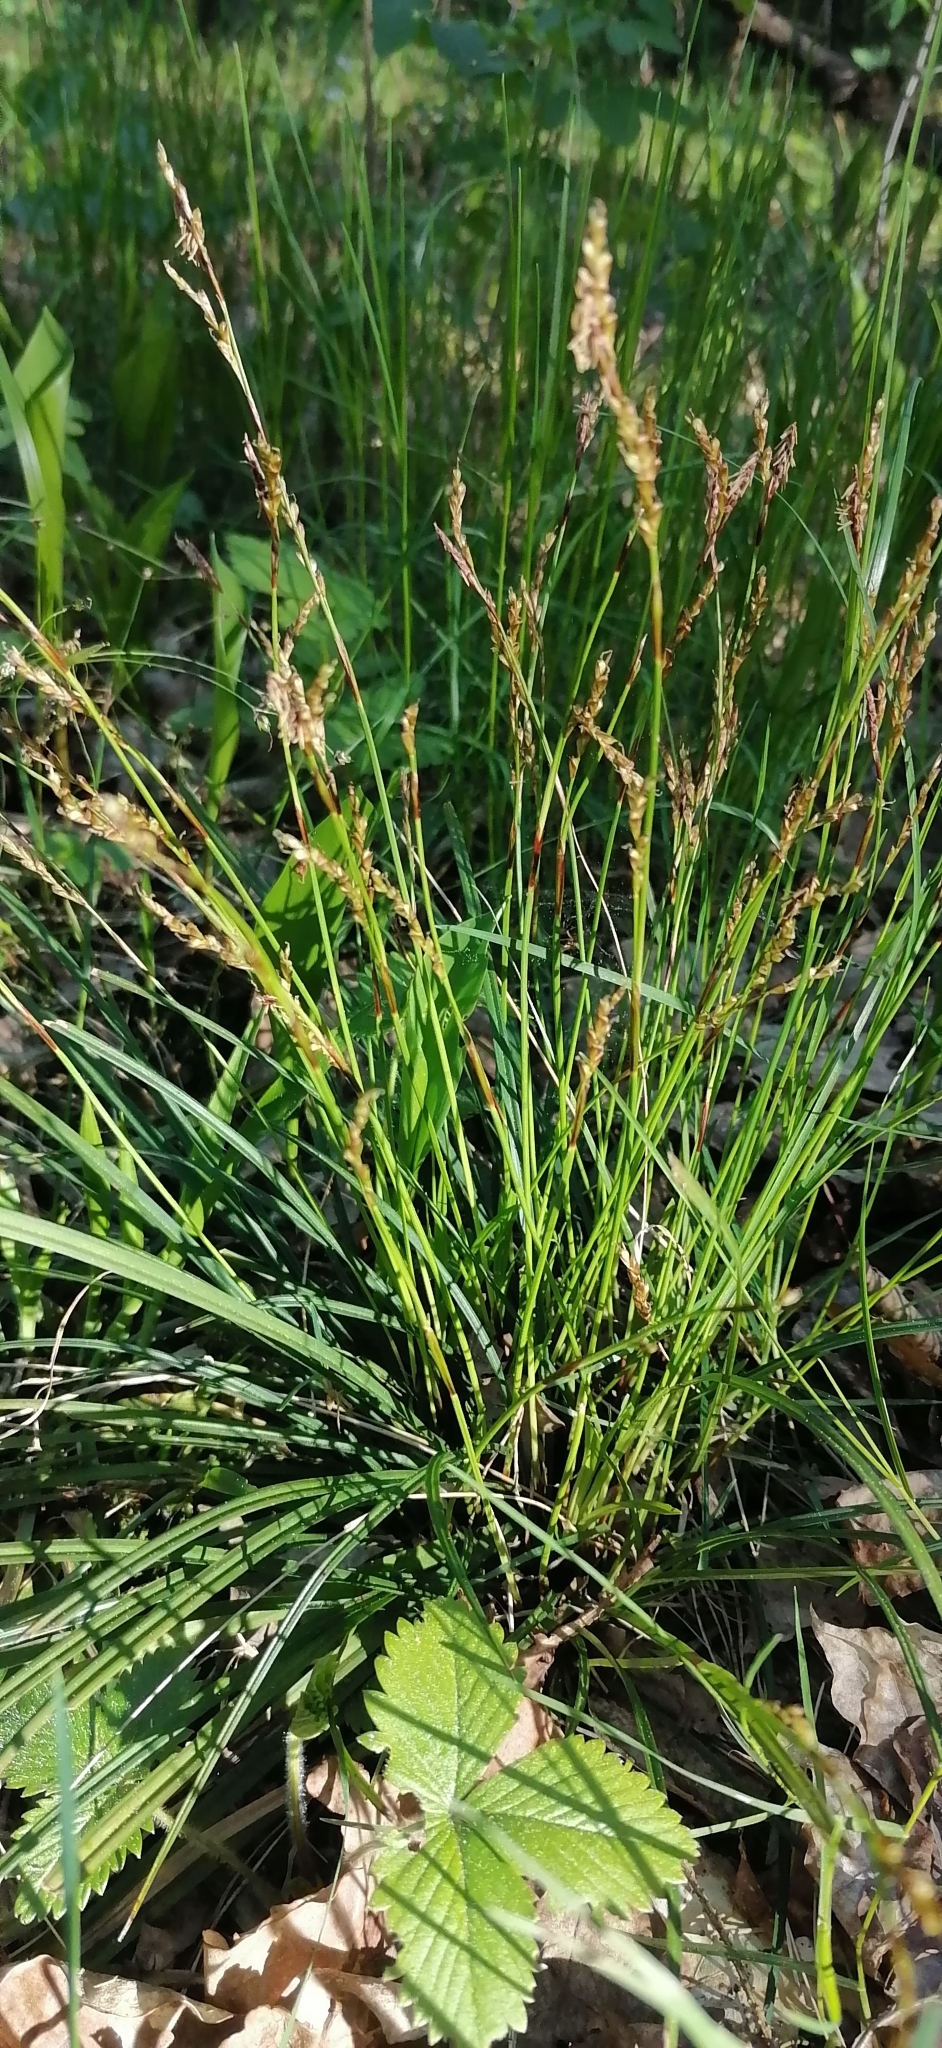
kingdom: Plantae
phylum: Tracheophyta
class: Liliopsida
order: Poales
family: Cyperaceae
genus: Carex
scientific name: Carex digitata
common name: Fingered sedge
